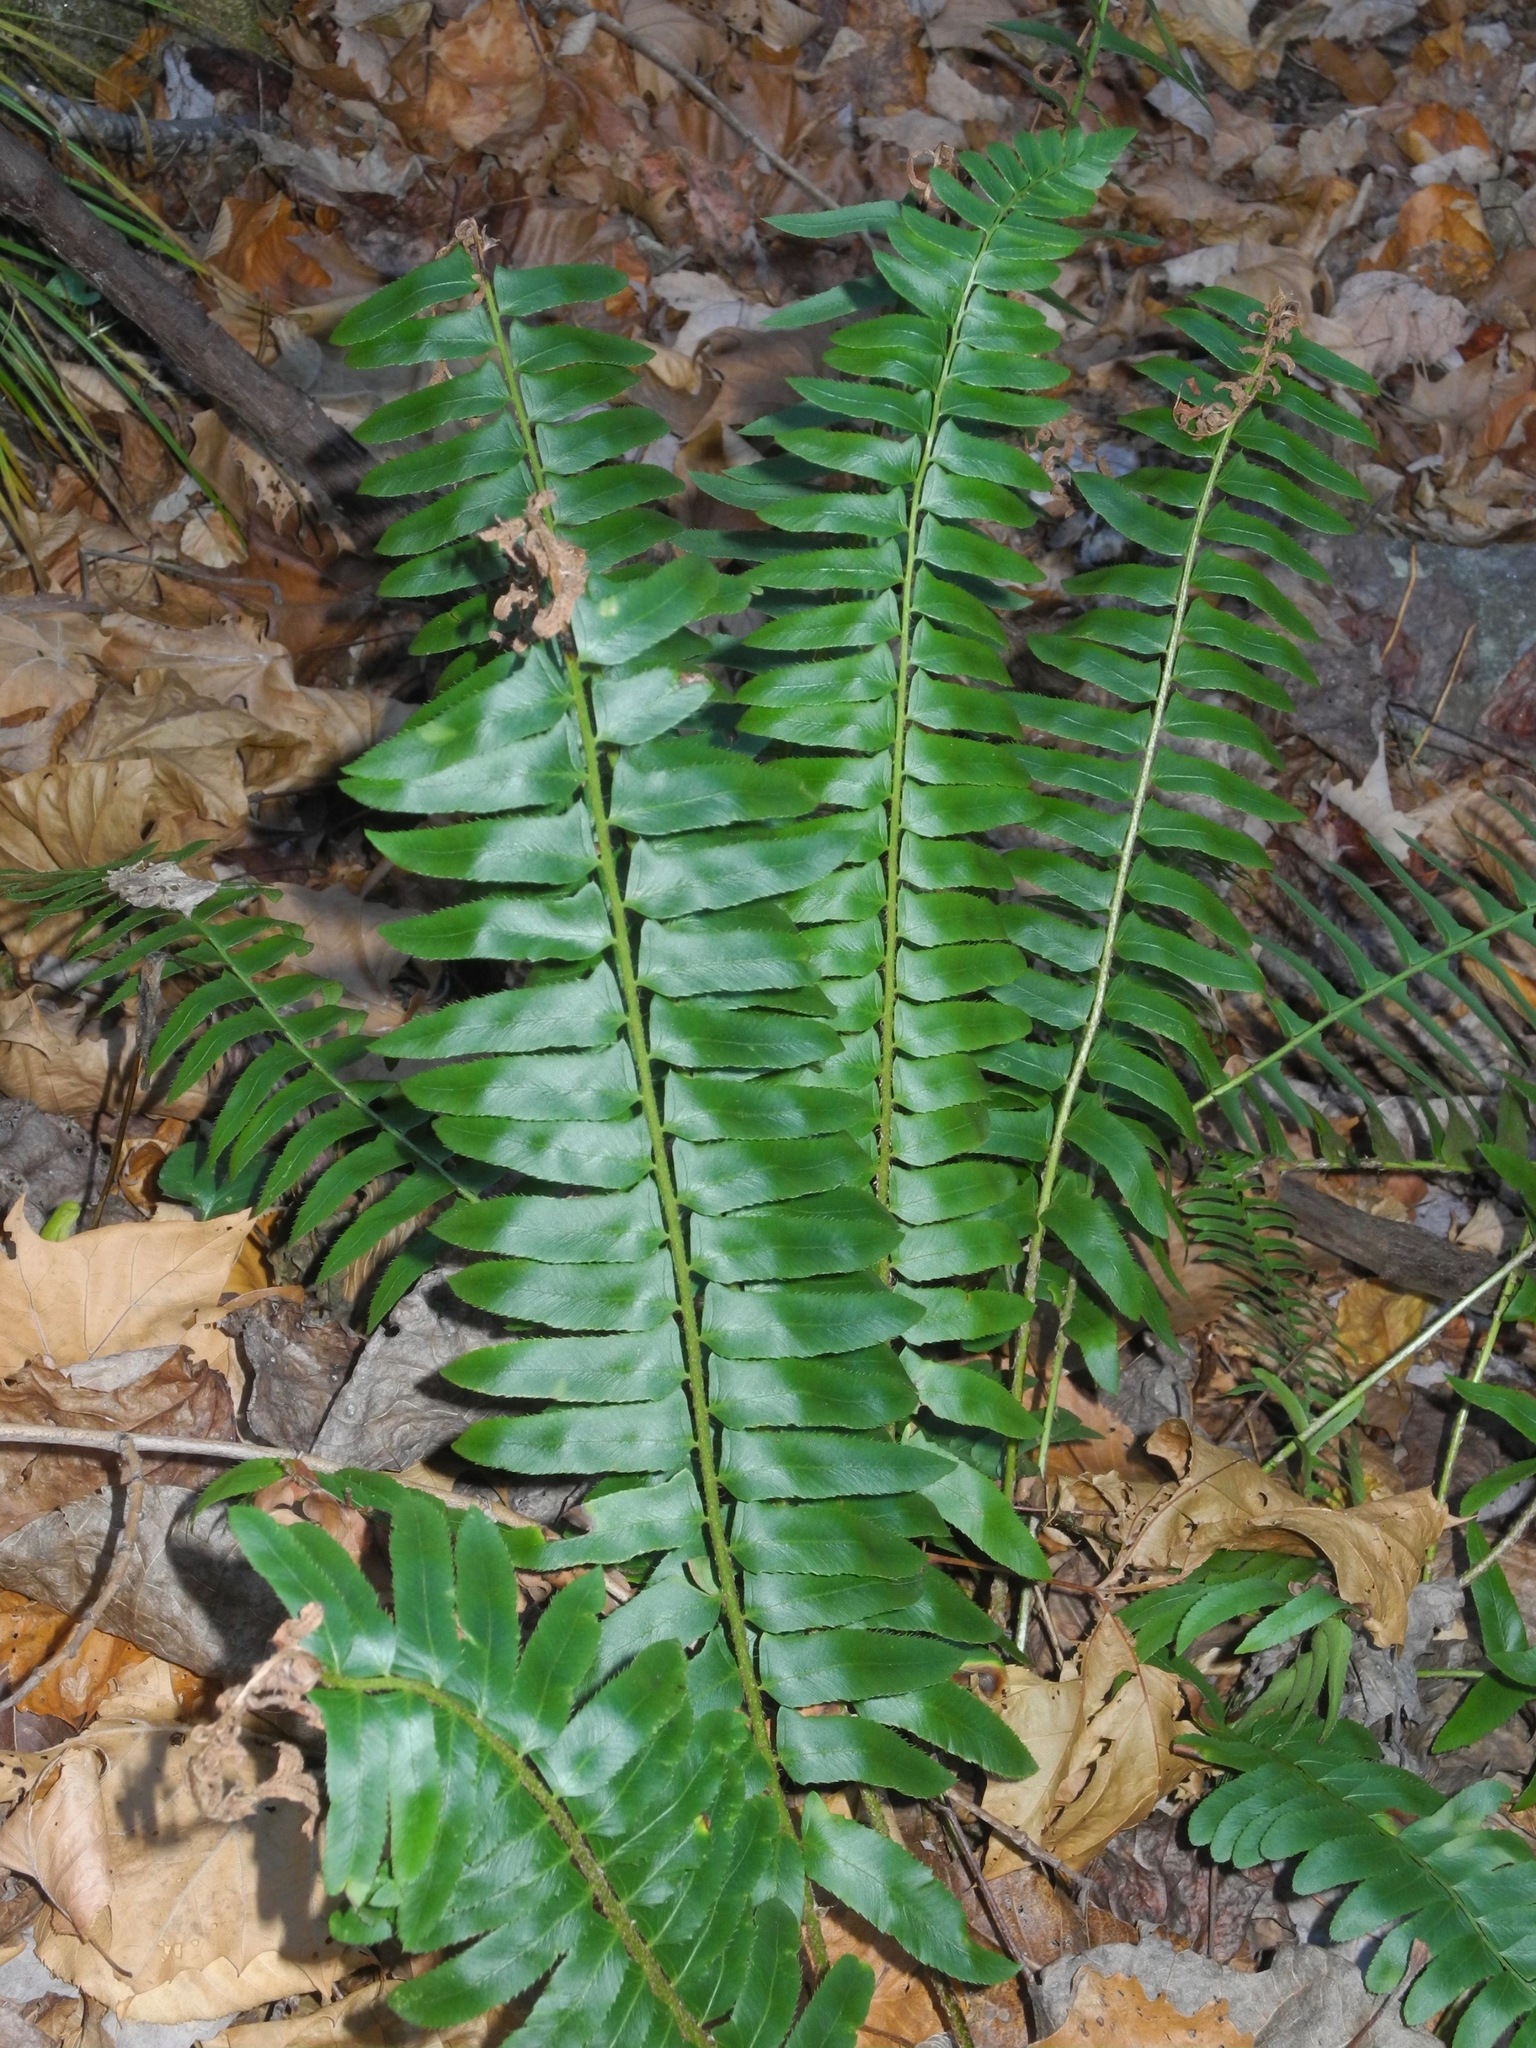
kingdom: Plantae
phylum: Tracheophyta
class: Polypodiopsida
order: Polypodiales
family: Dryopteridaceae
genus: Polystichum
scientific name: Polystichum acrostichoides
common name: Christmas fern
